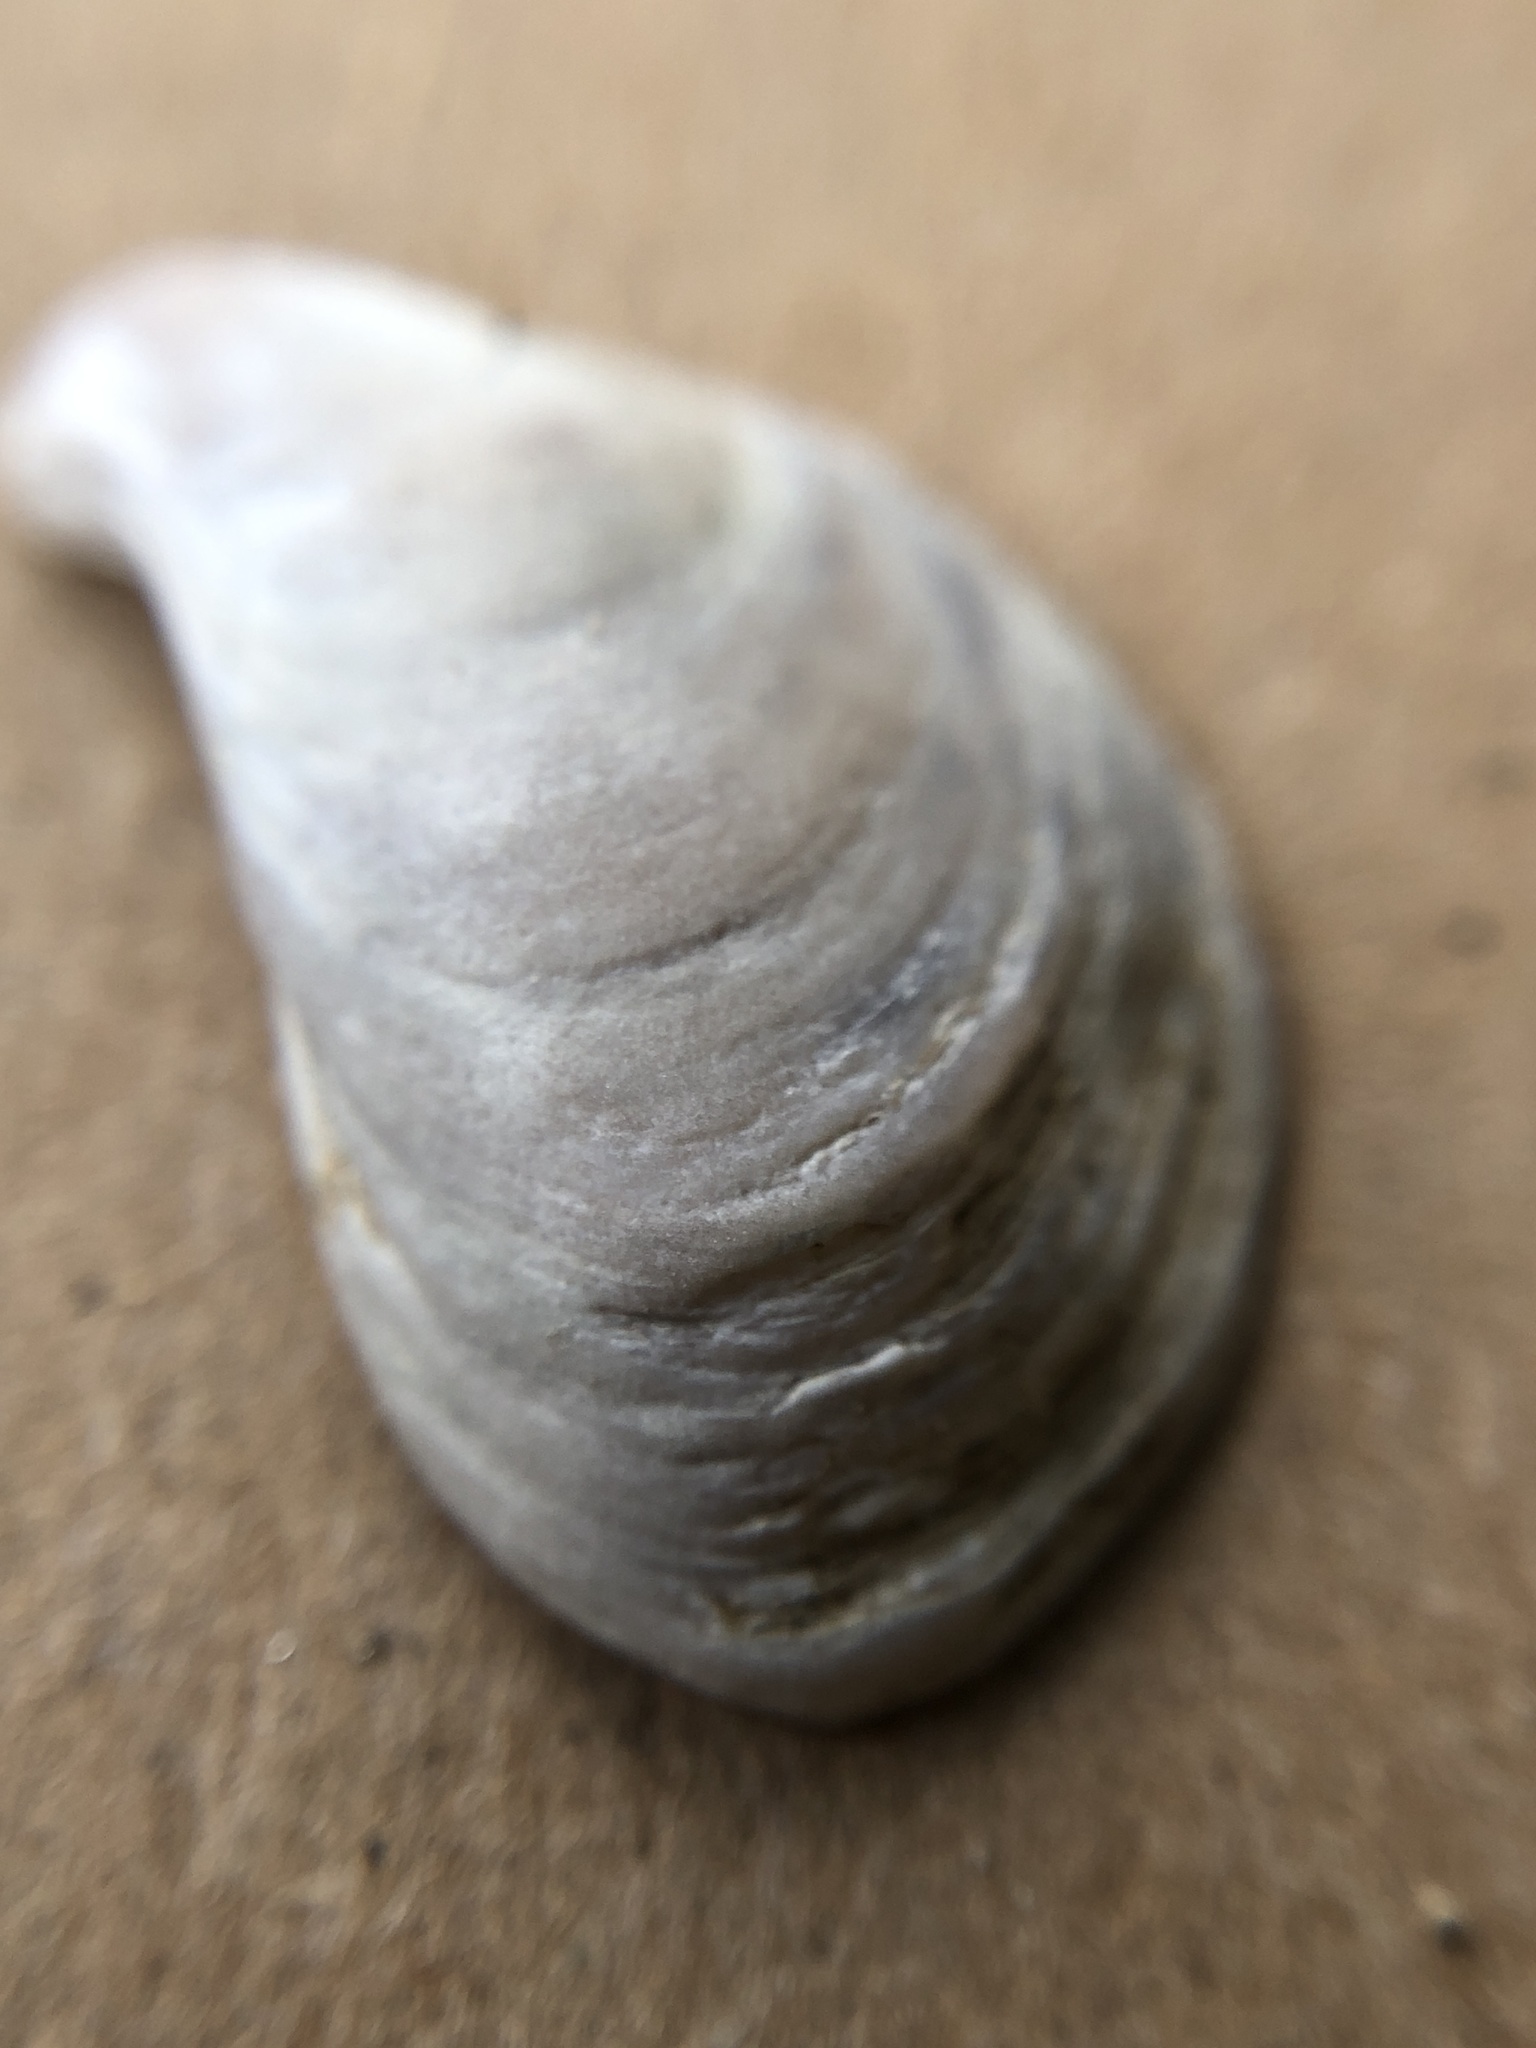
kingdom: Animalia
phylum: Mollusca
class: Bivalvia
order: Myida
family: Dreissenidae
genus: Dreissena
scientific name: Dreissena bugensis
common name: Quagga mussel
